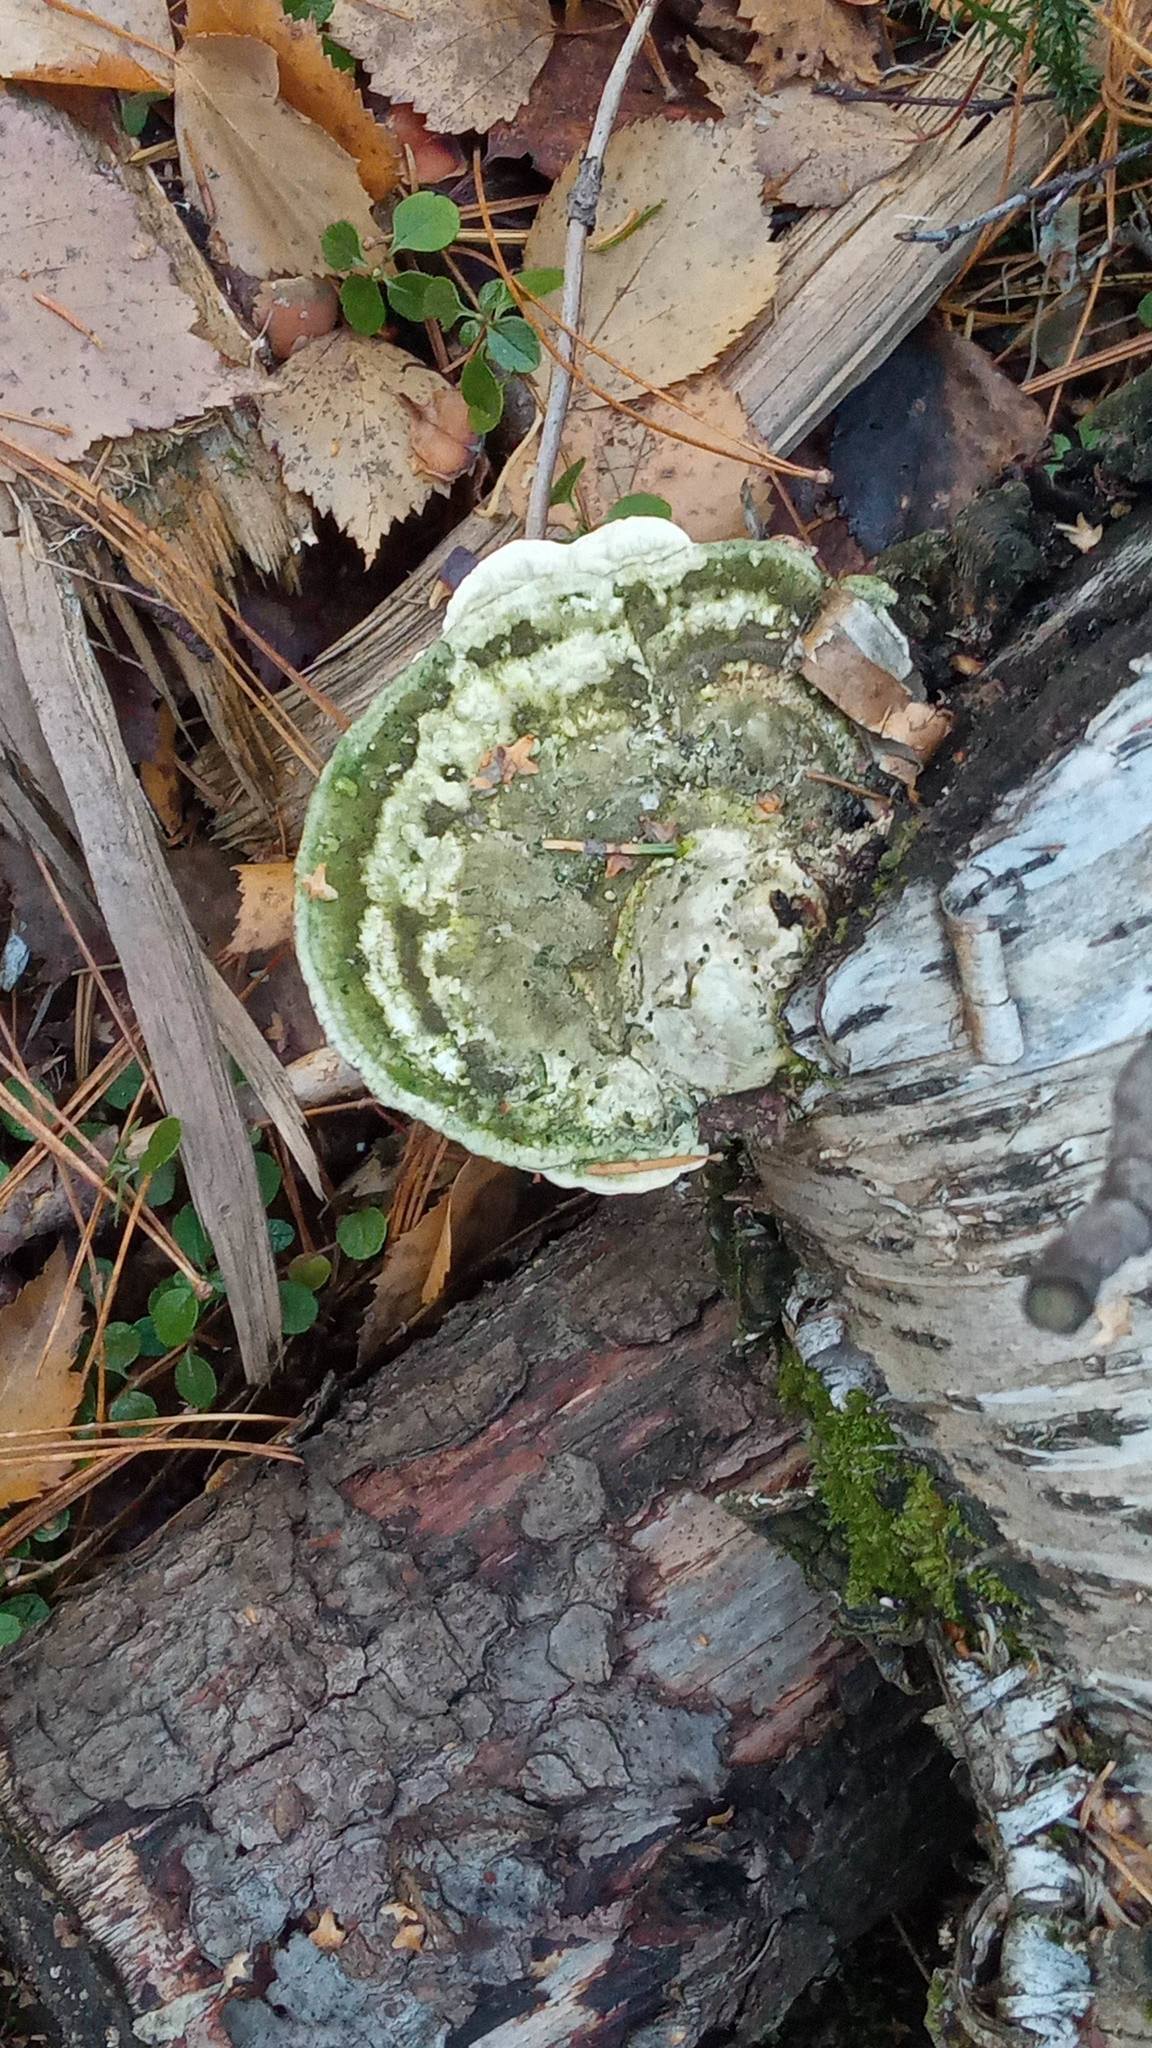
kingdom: Fungi
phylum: Basidiomycota
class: Agaricomycetes
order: Polyporales
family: Polyporaceae
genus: Trametes
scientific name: Trametes gibbosa
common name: Lumpy bracket
